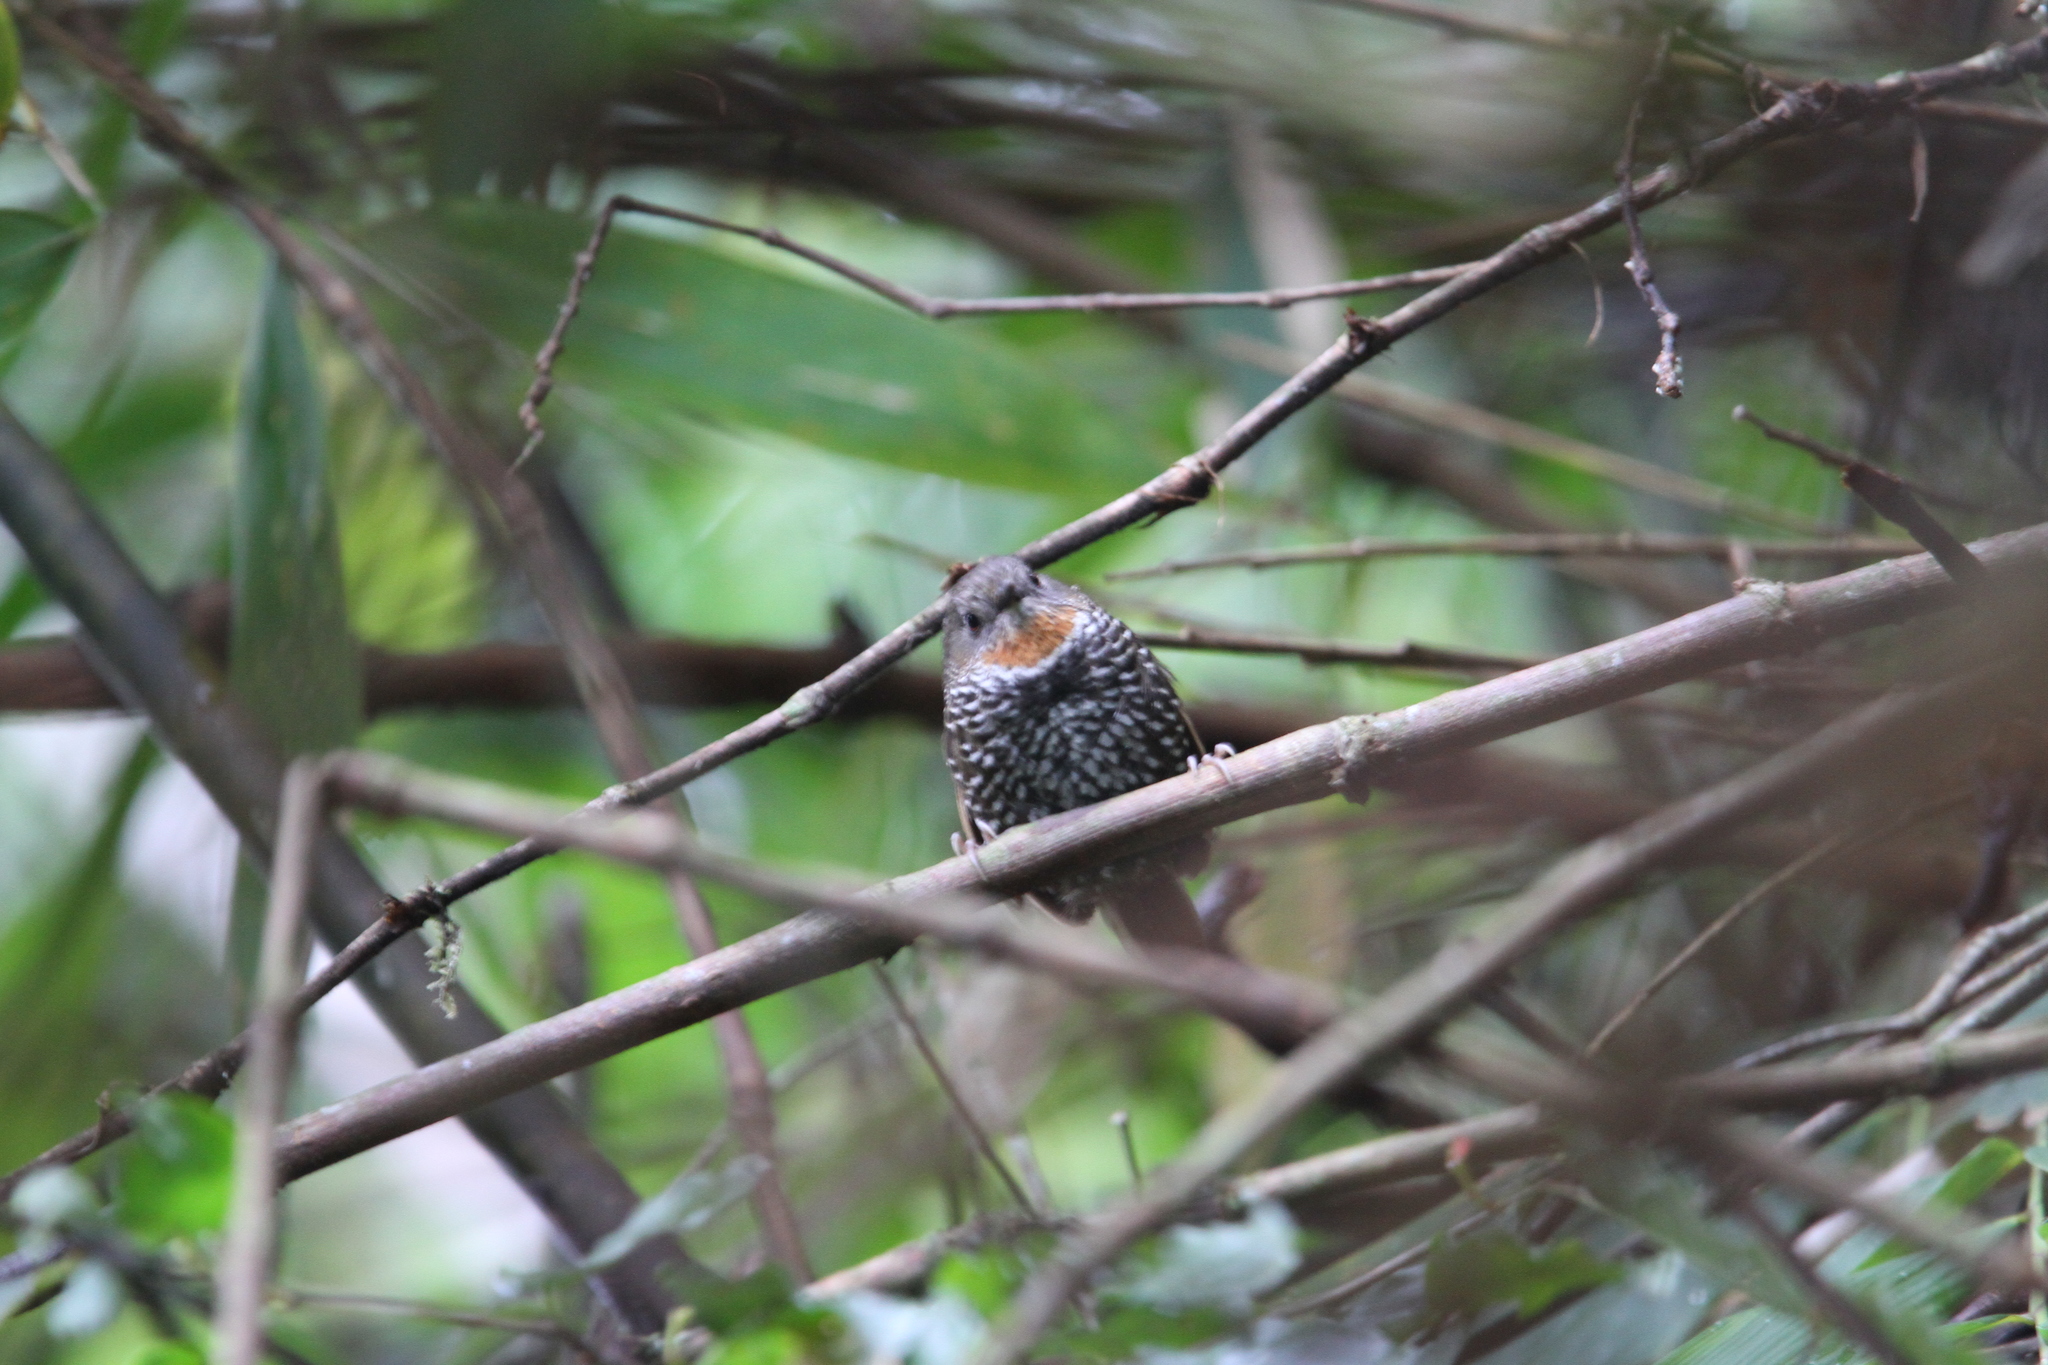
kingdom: Animalia
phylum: Chordata
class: Aves
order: Passeriformes
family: Timaliidae
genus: Spelaeornis
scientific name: Spelaeornis badeigularis
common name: Rusty-throated wren-babbler
